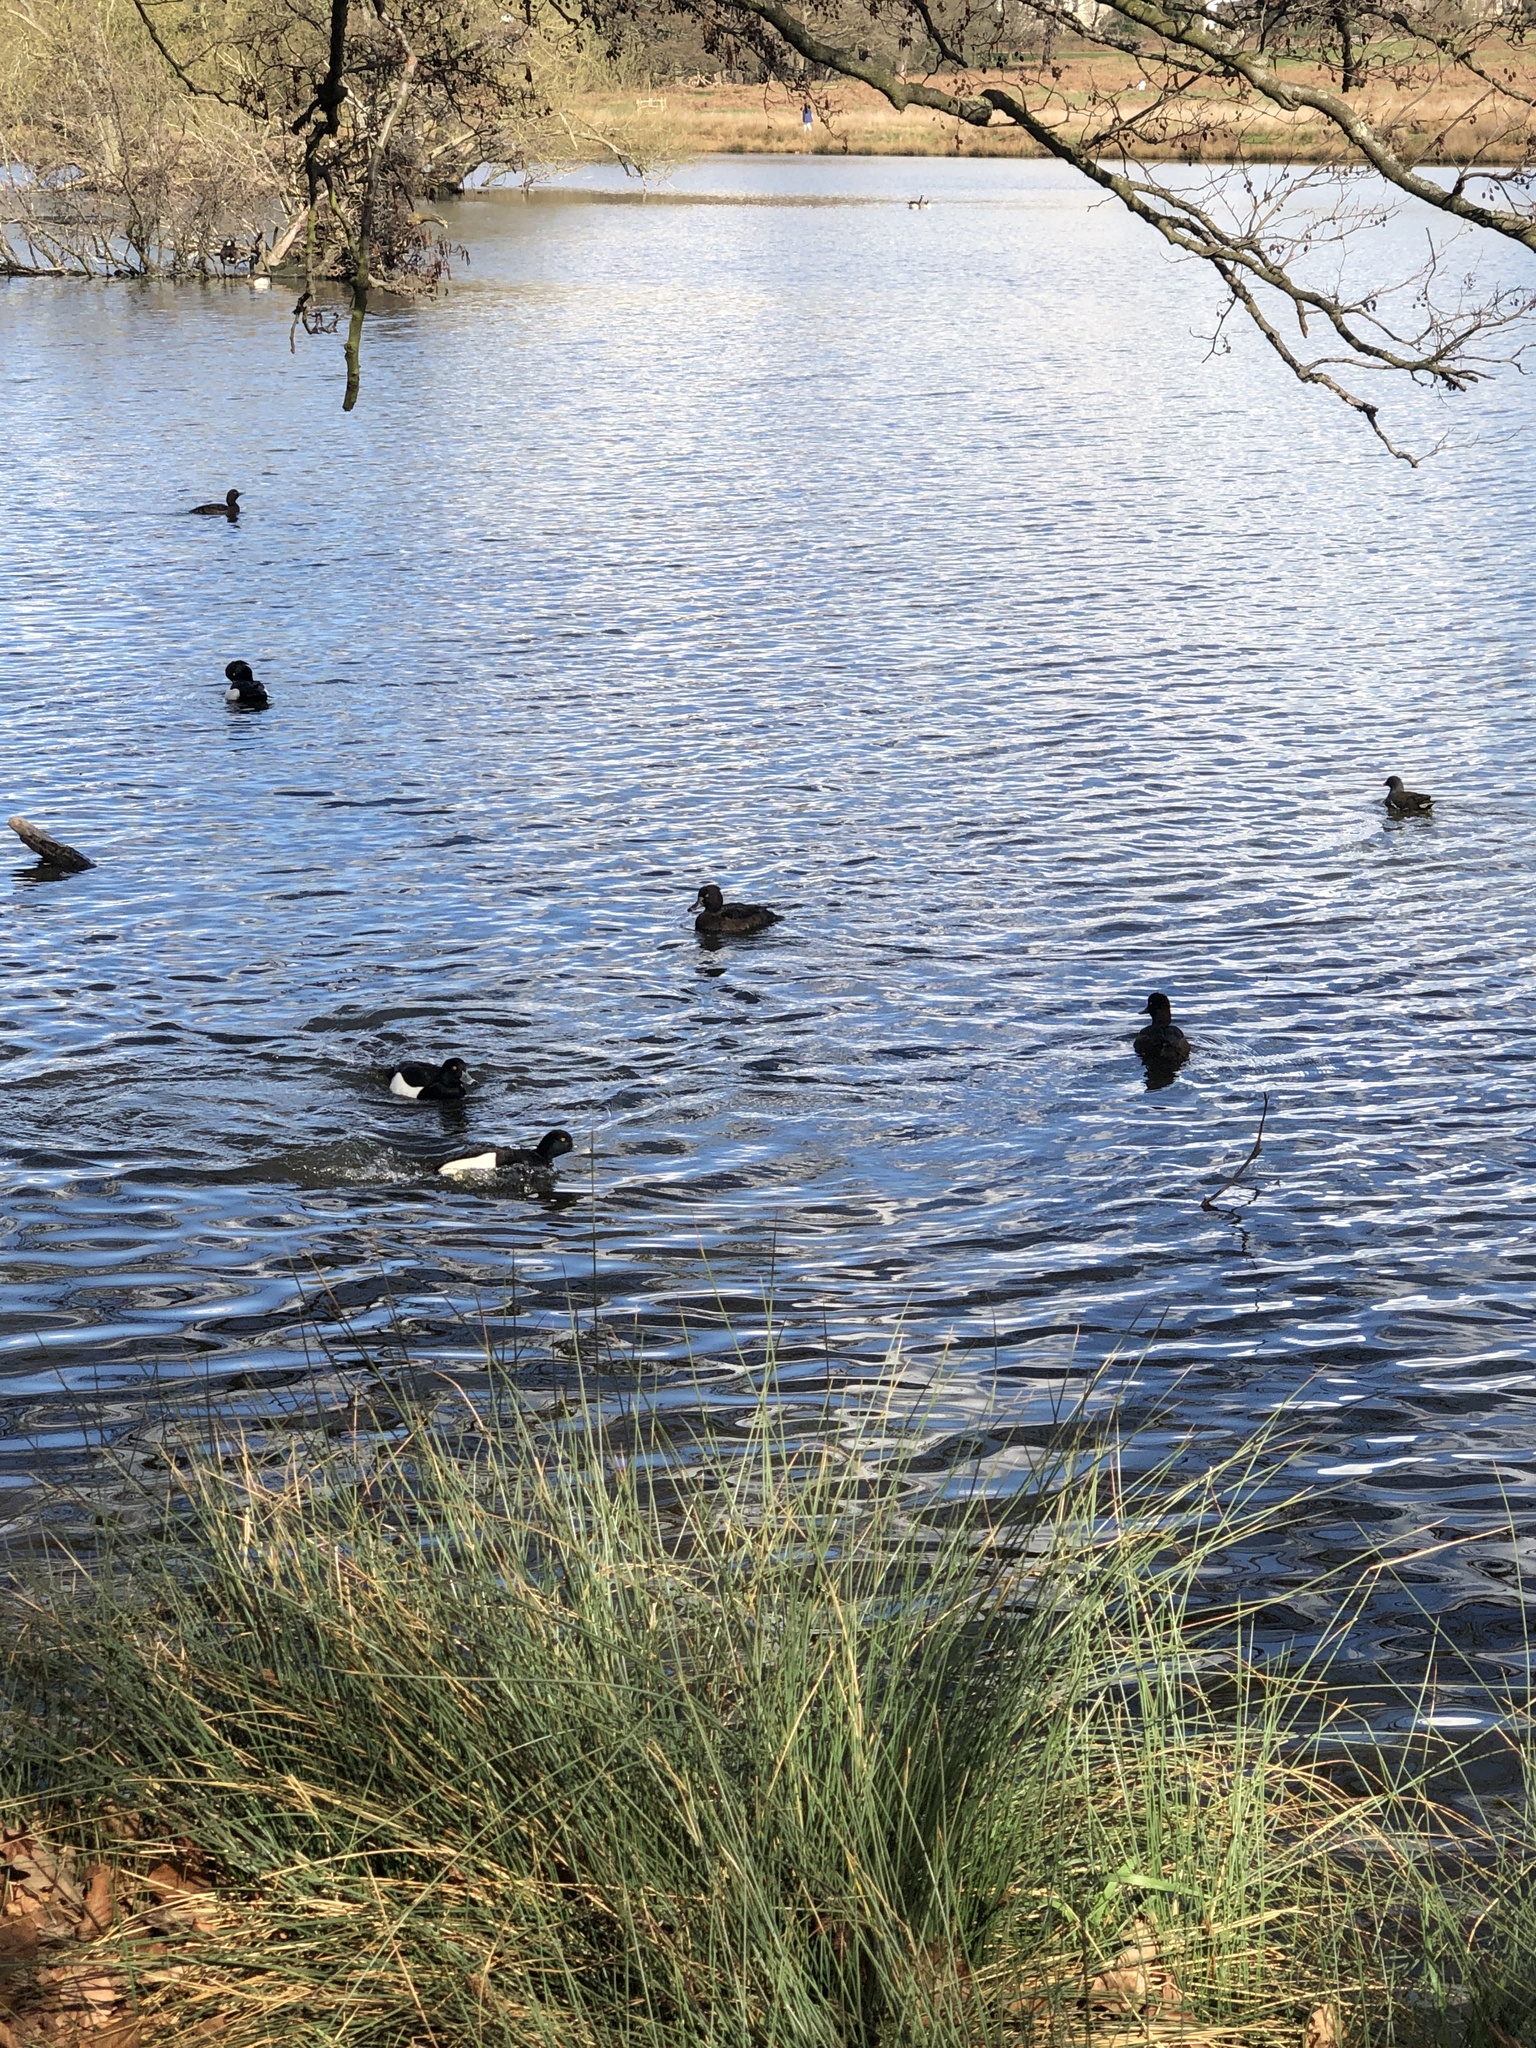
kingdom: Animalia
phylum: Chordata
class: Aves
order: Anseriformes
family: Anatidae
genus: Aythya
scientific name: Aythya fuligula
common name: Tufted duck
